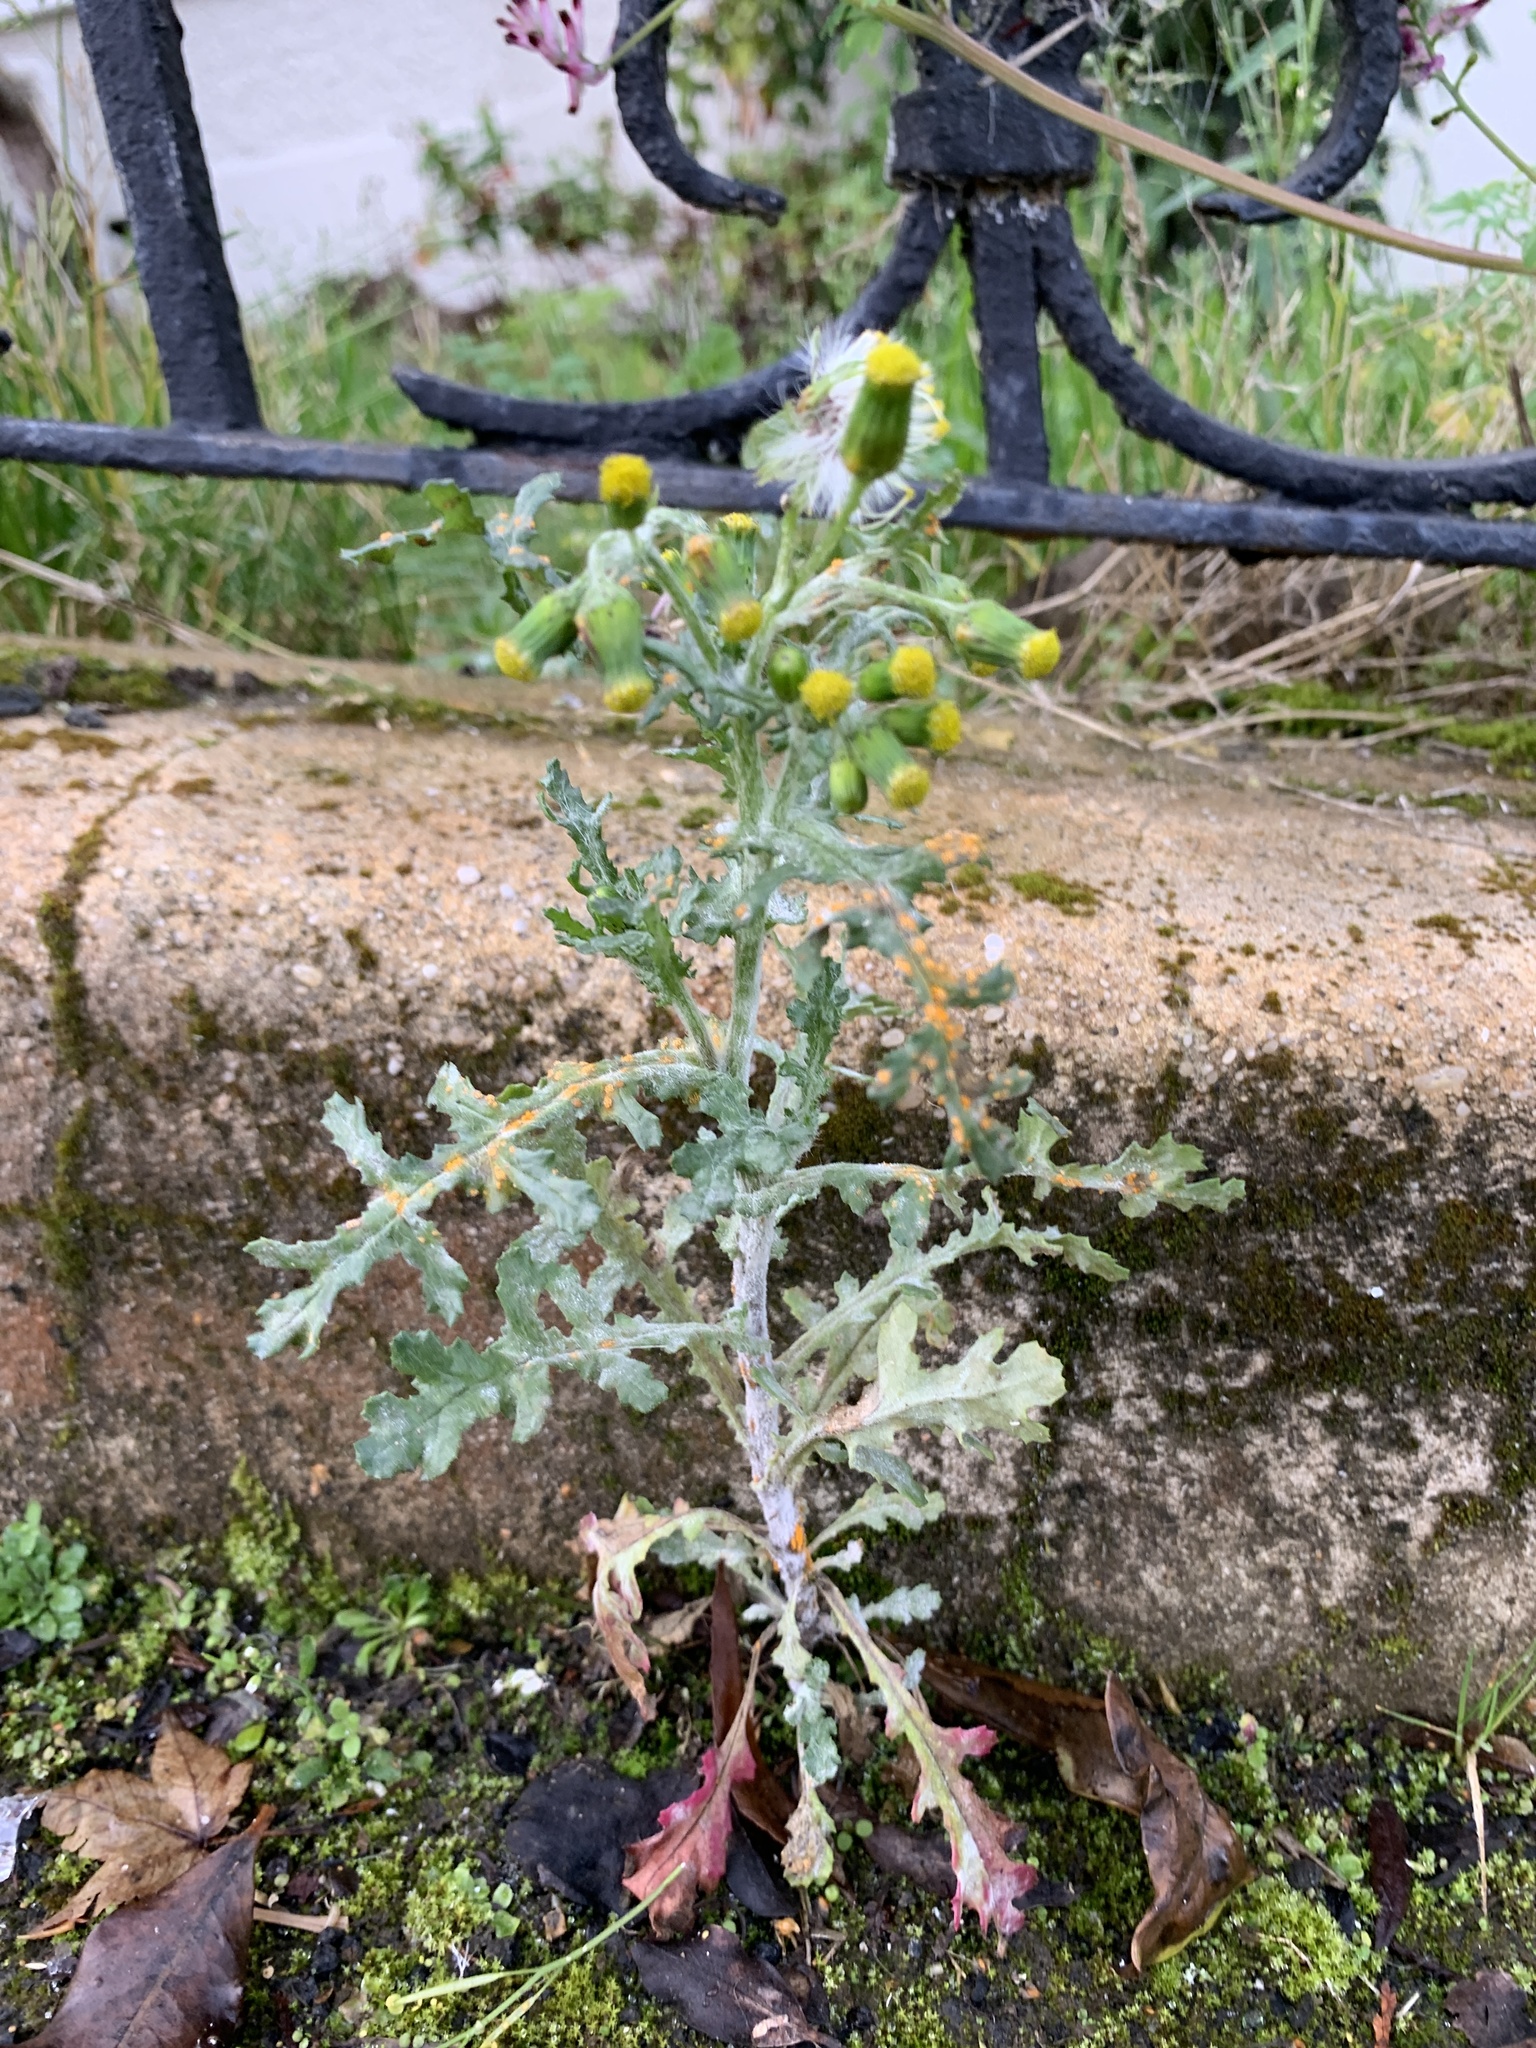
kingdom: Plantae
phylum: Tracheophyta
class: Magnoliopsida
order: Asterales
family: Asteraceae
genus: Senecio
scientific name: Senecio vulgaris
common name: Old-man-in-the-spring
